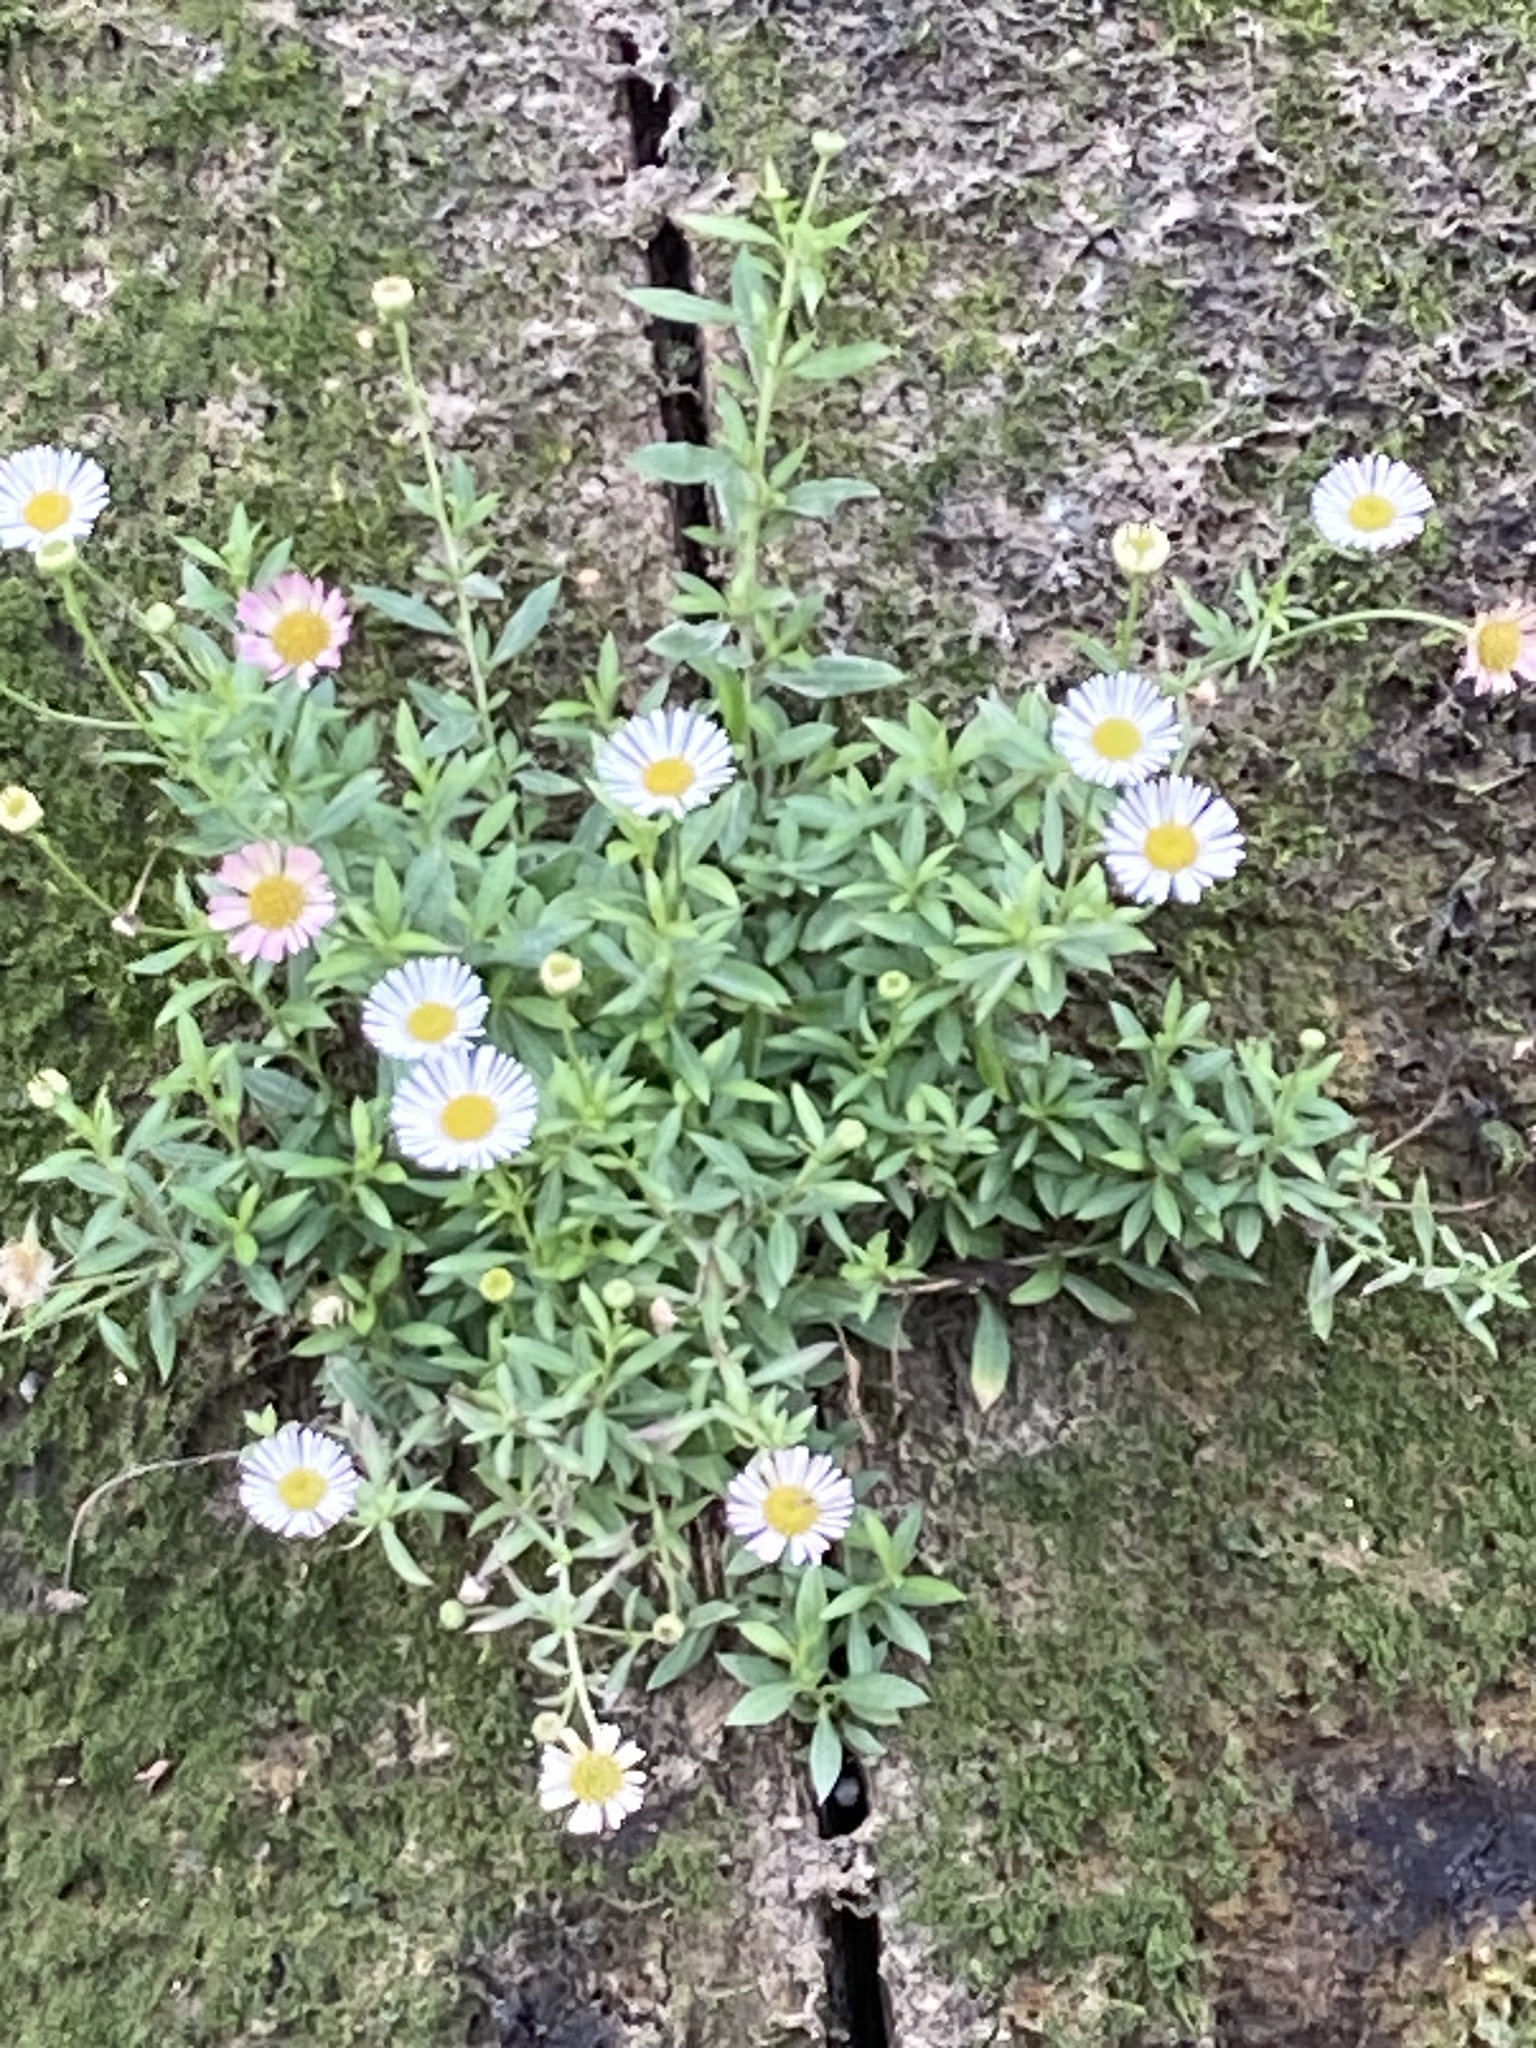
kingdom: Plantae
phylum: Tracheophyta
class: Magnoliopsida
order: Asterales
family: Asteraceae
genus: Erigeron
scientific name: Erigeron karvinskianus
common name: Mexican fleabane
